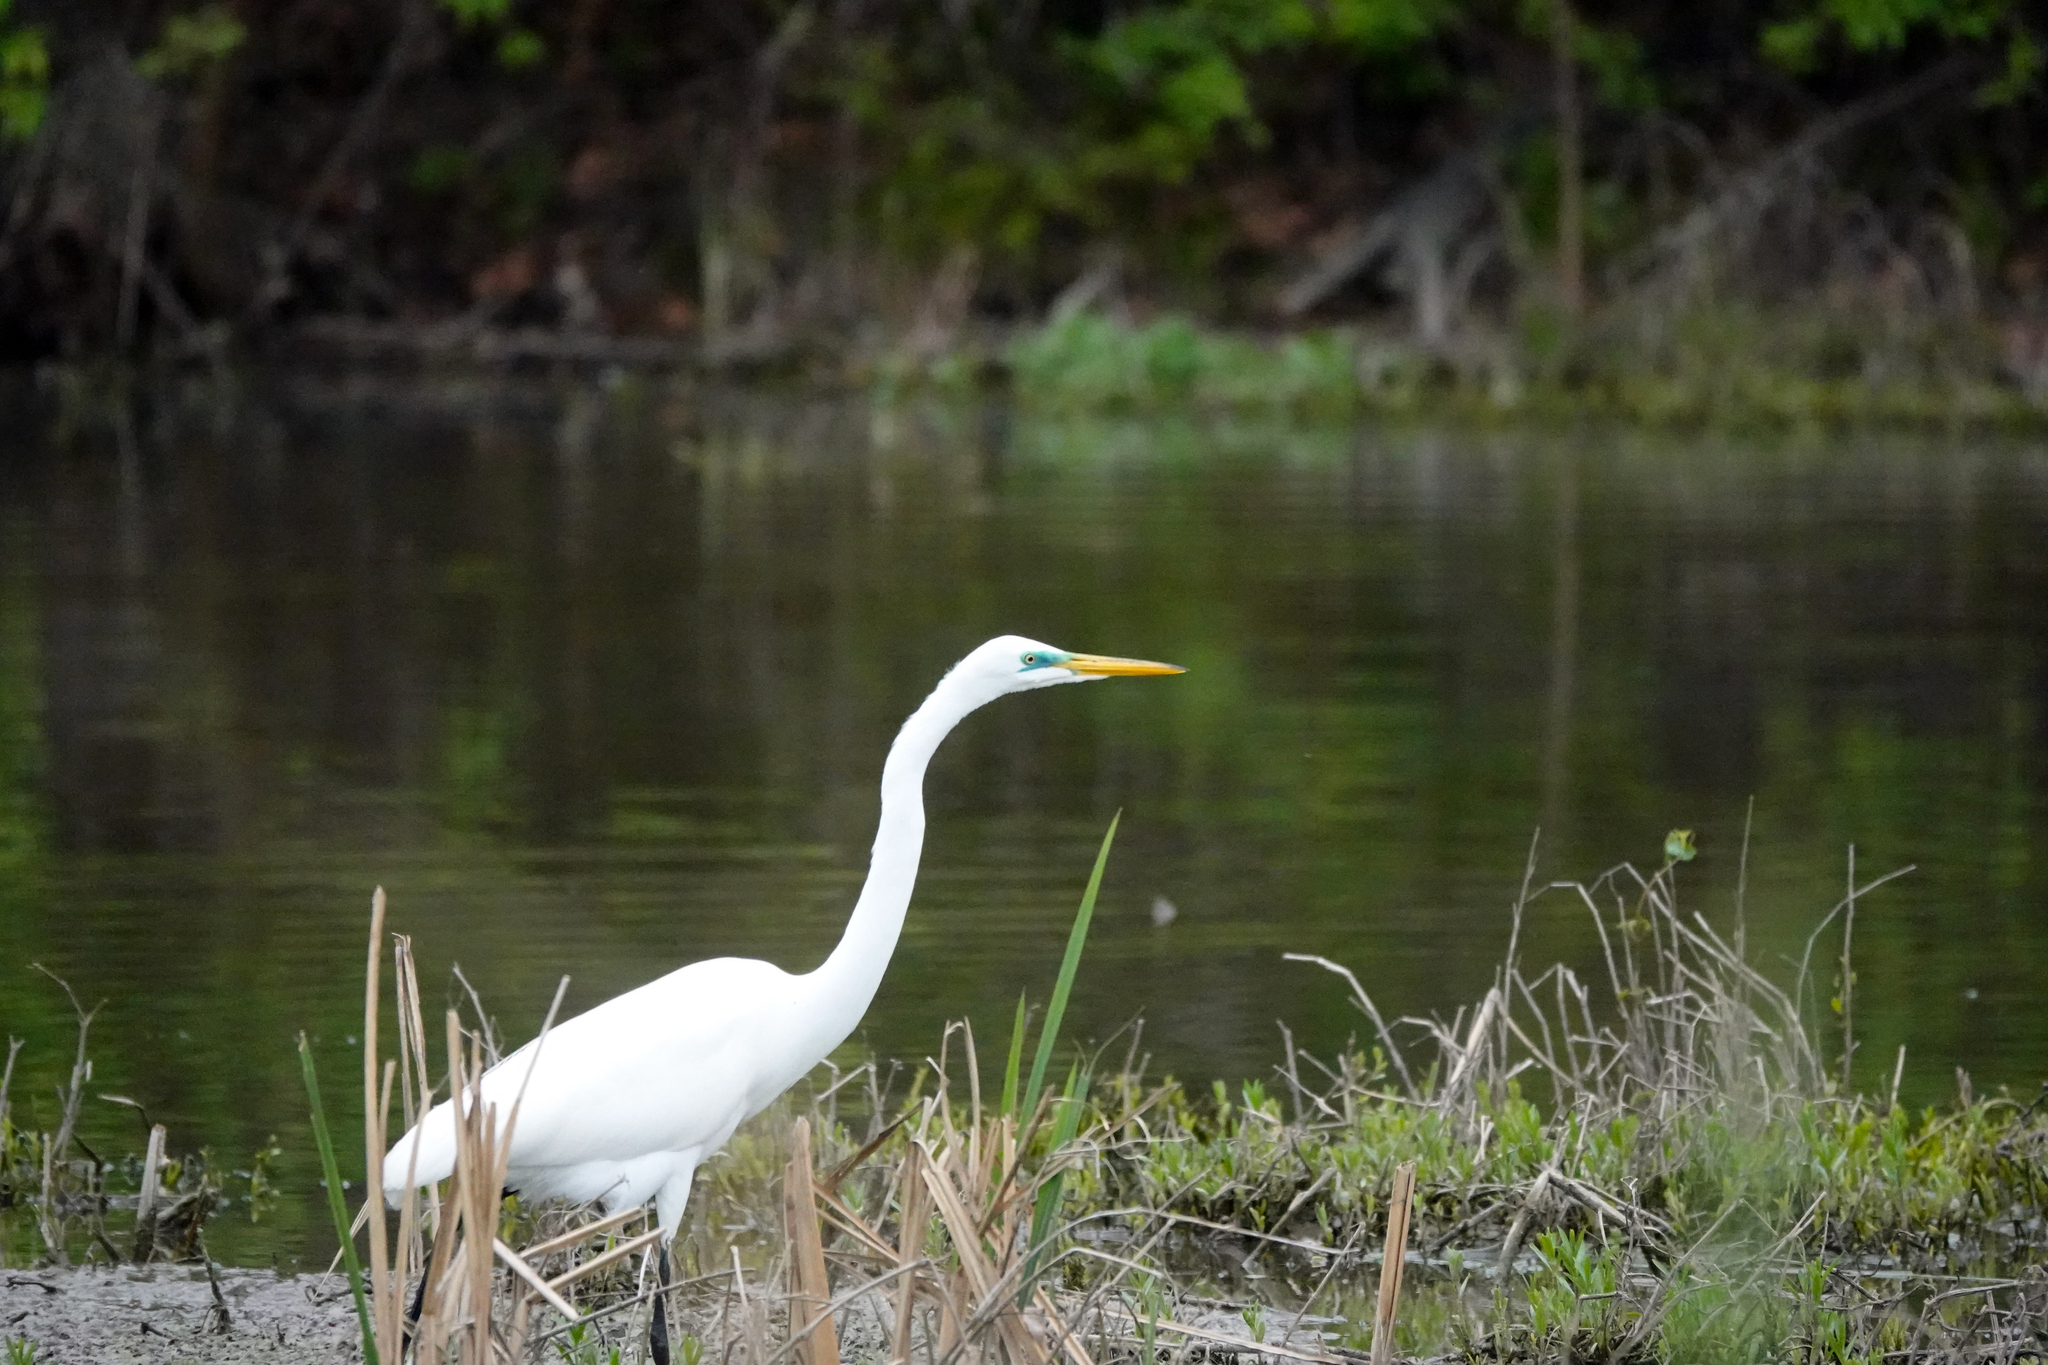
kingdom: Animalia
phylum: Chordata
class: Aves
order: Pelecaniformes
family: Ardeidae
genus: Ardea
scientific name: Ardea alba
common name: Great egret
